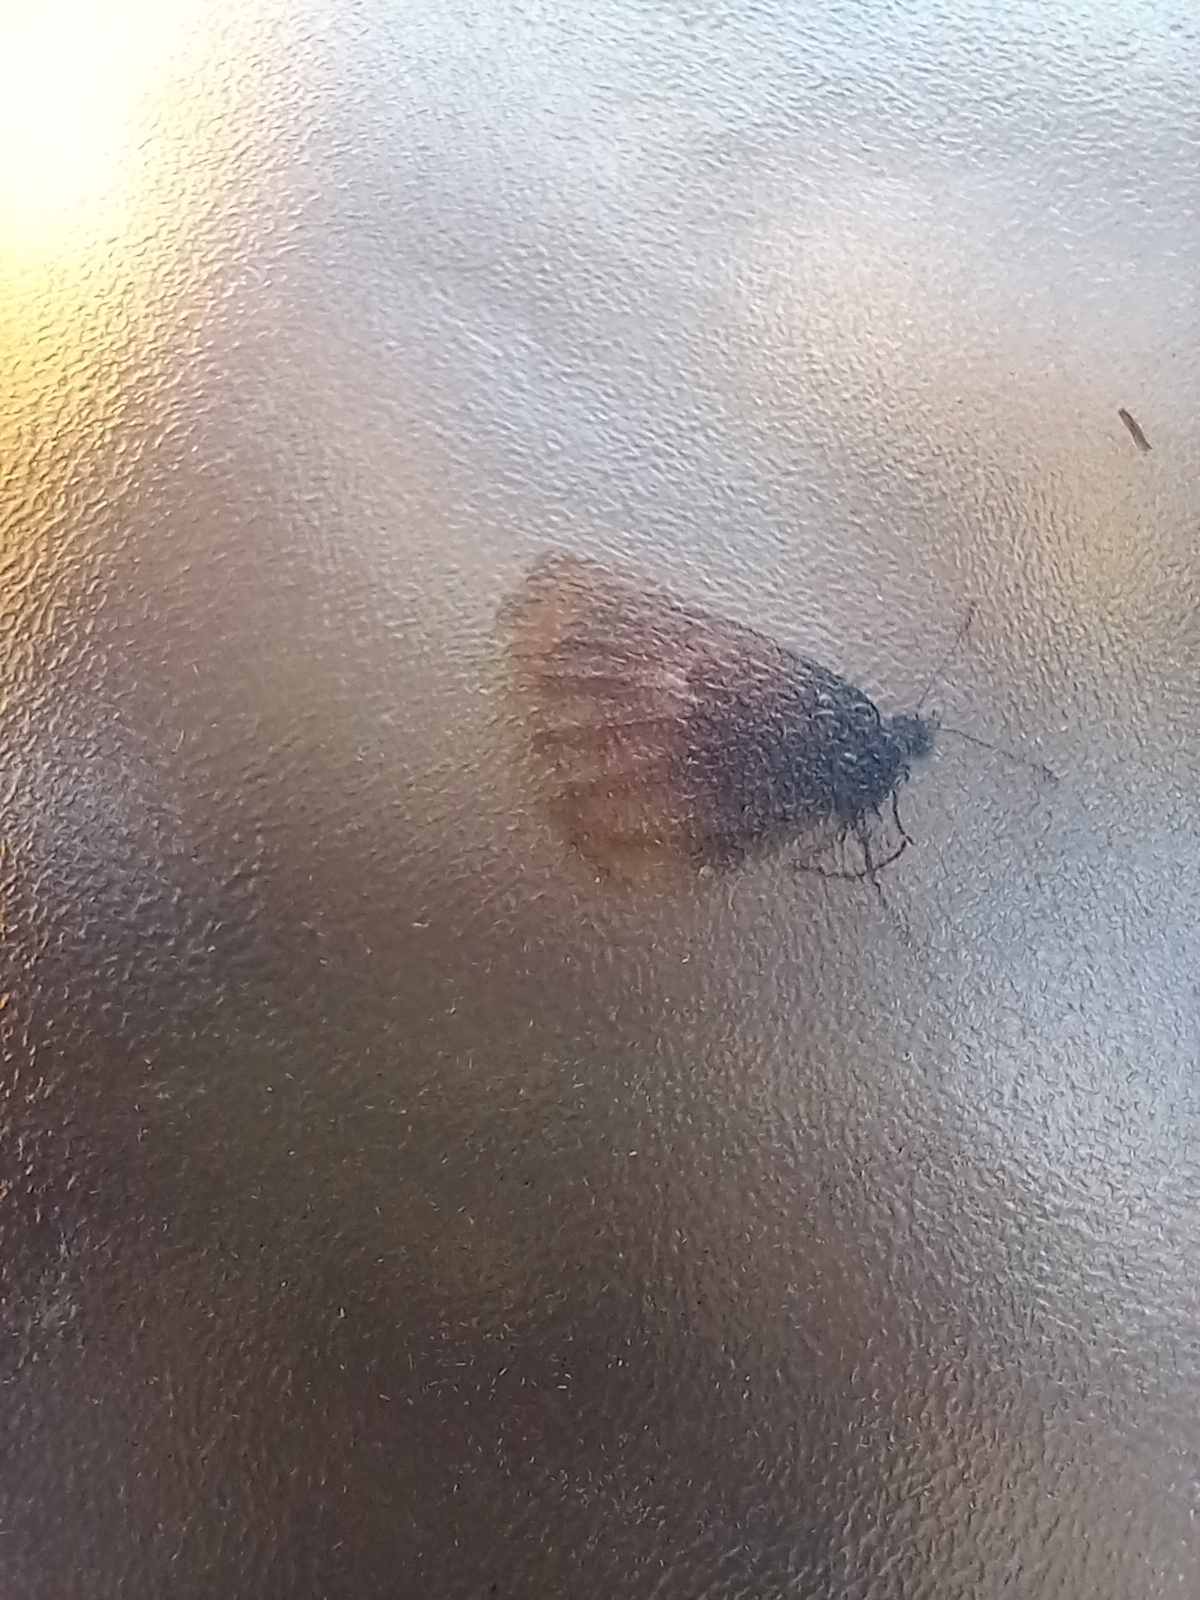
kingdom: Animalia
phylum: Arthropoda
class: Insecta
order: Lepidoptera
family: Nymphalidae
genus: Coenonympha
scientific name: Coenonympha pamphilus
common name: Small heath
